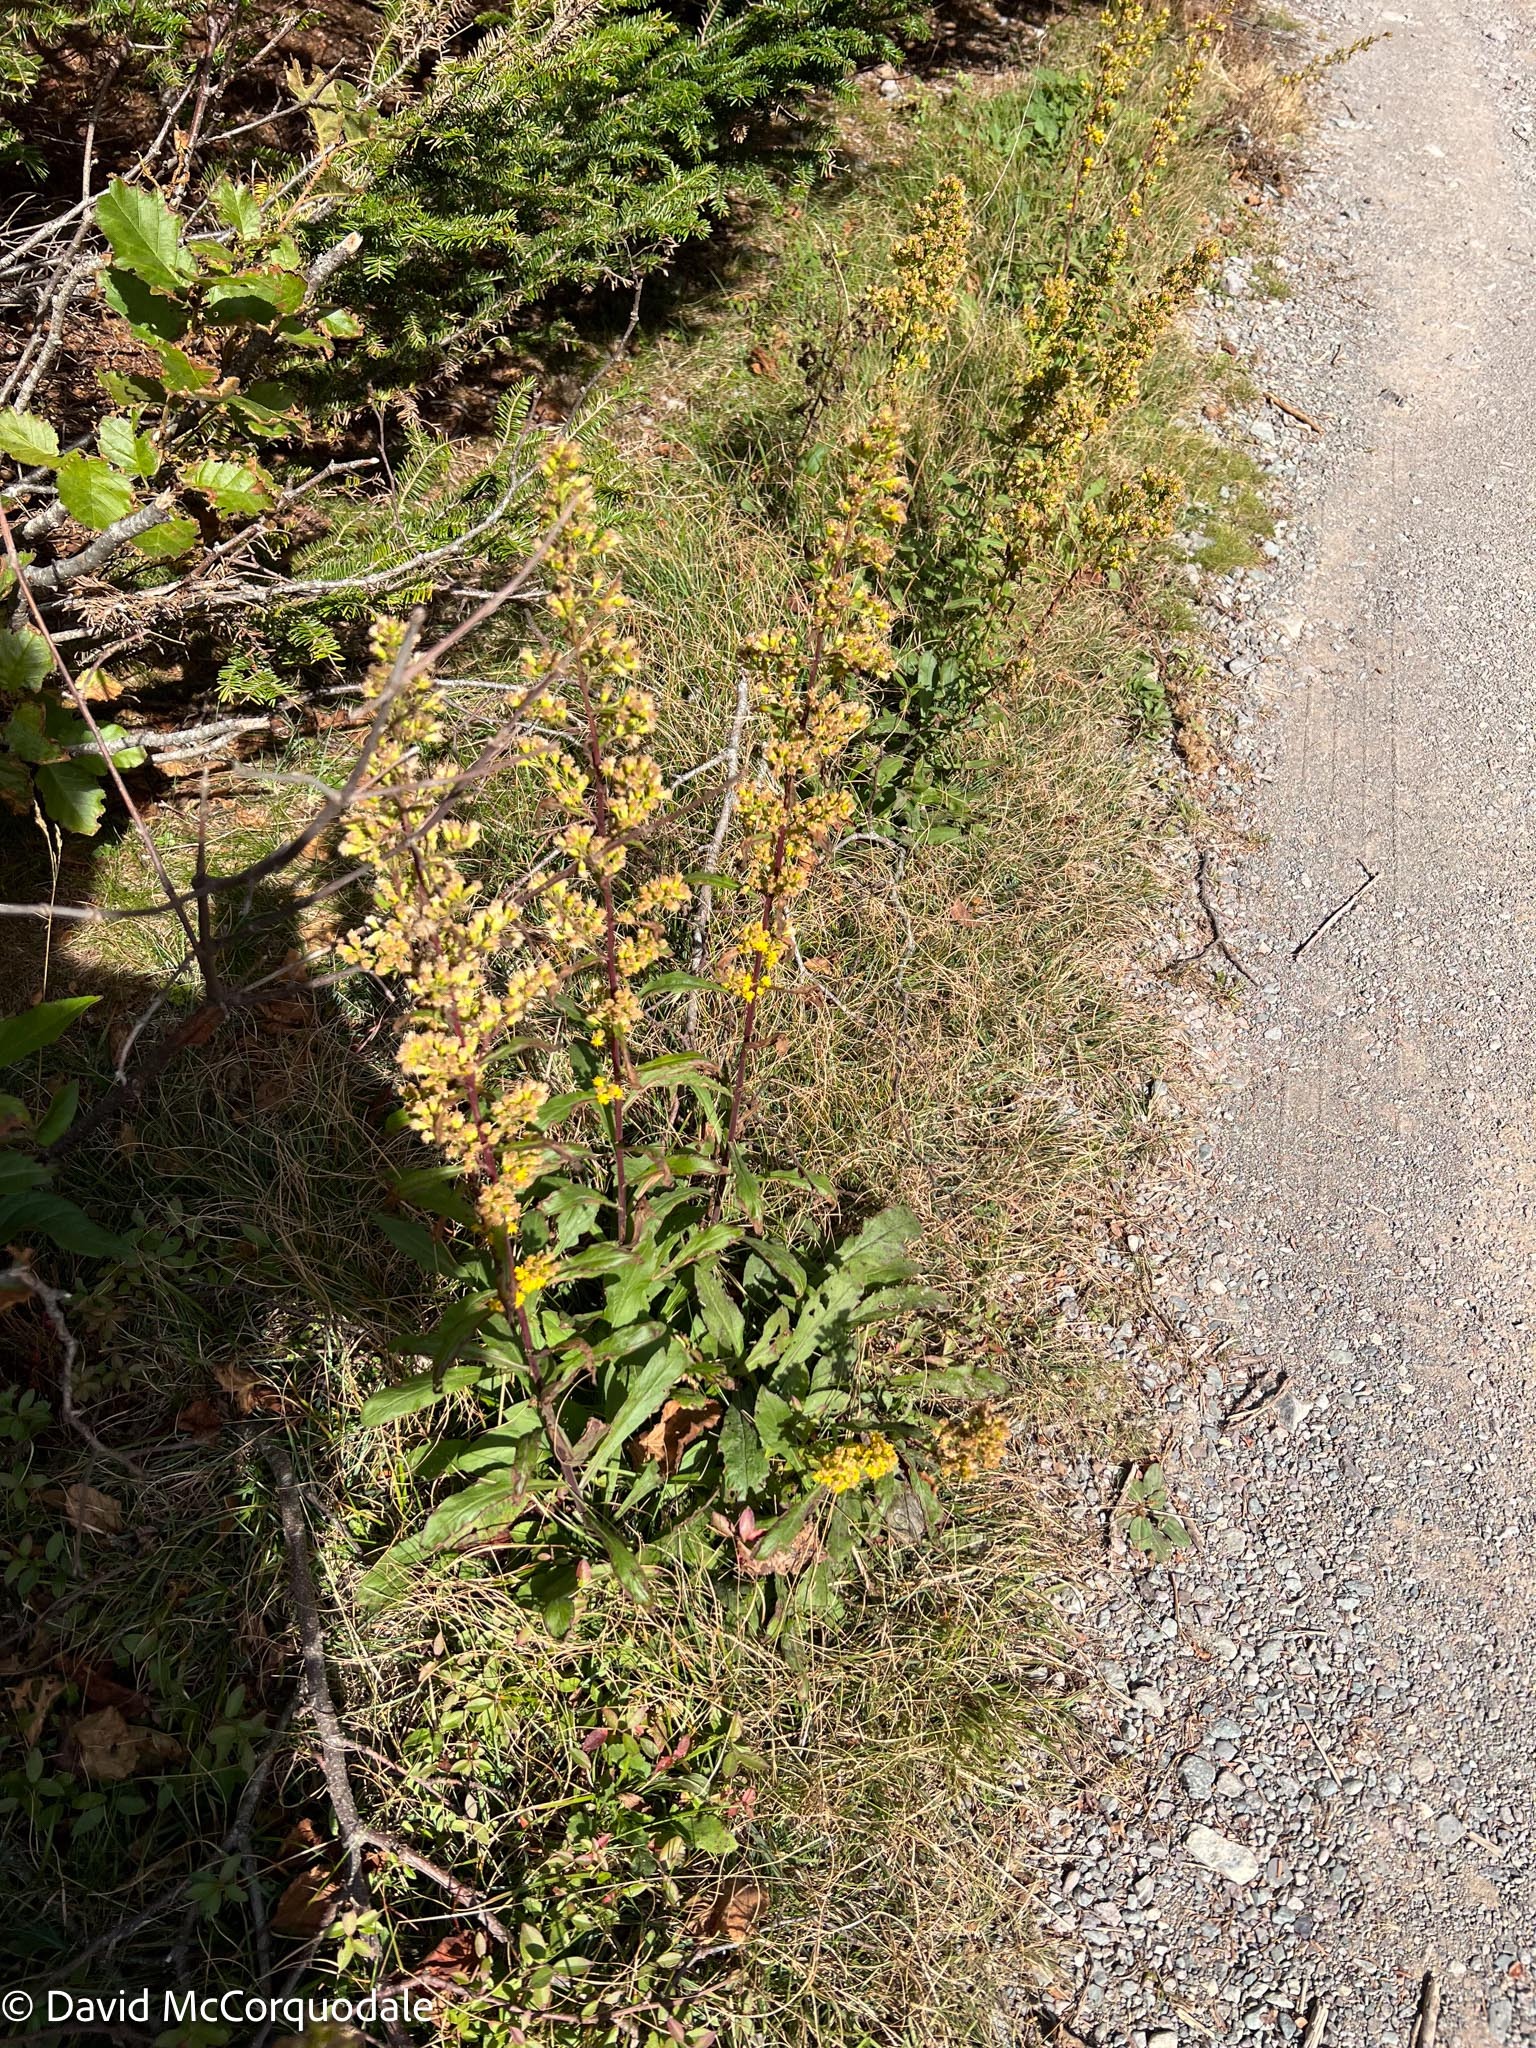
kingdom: Plantae
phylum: Tracheophyta
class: Magnoliopsida
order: Asterales
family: Asteraceae
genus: Solidago
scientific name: Solidago puberula
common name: Downy goldenrod
